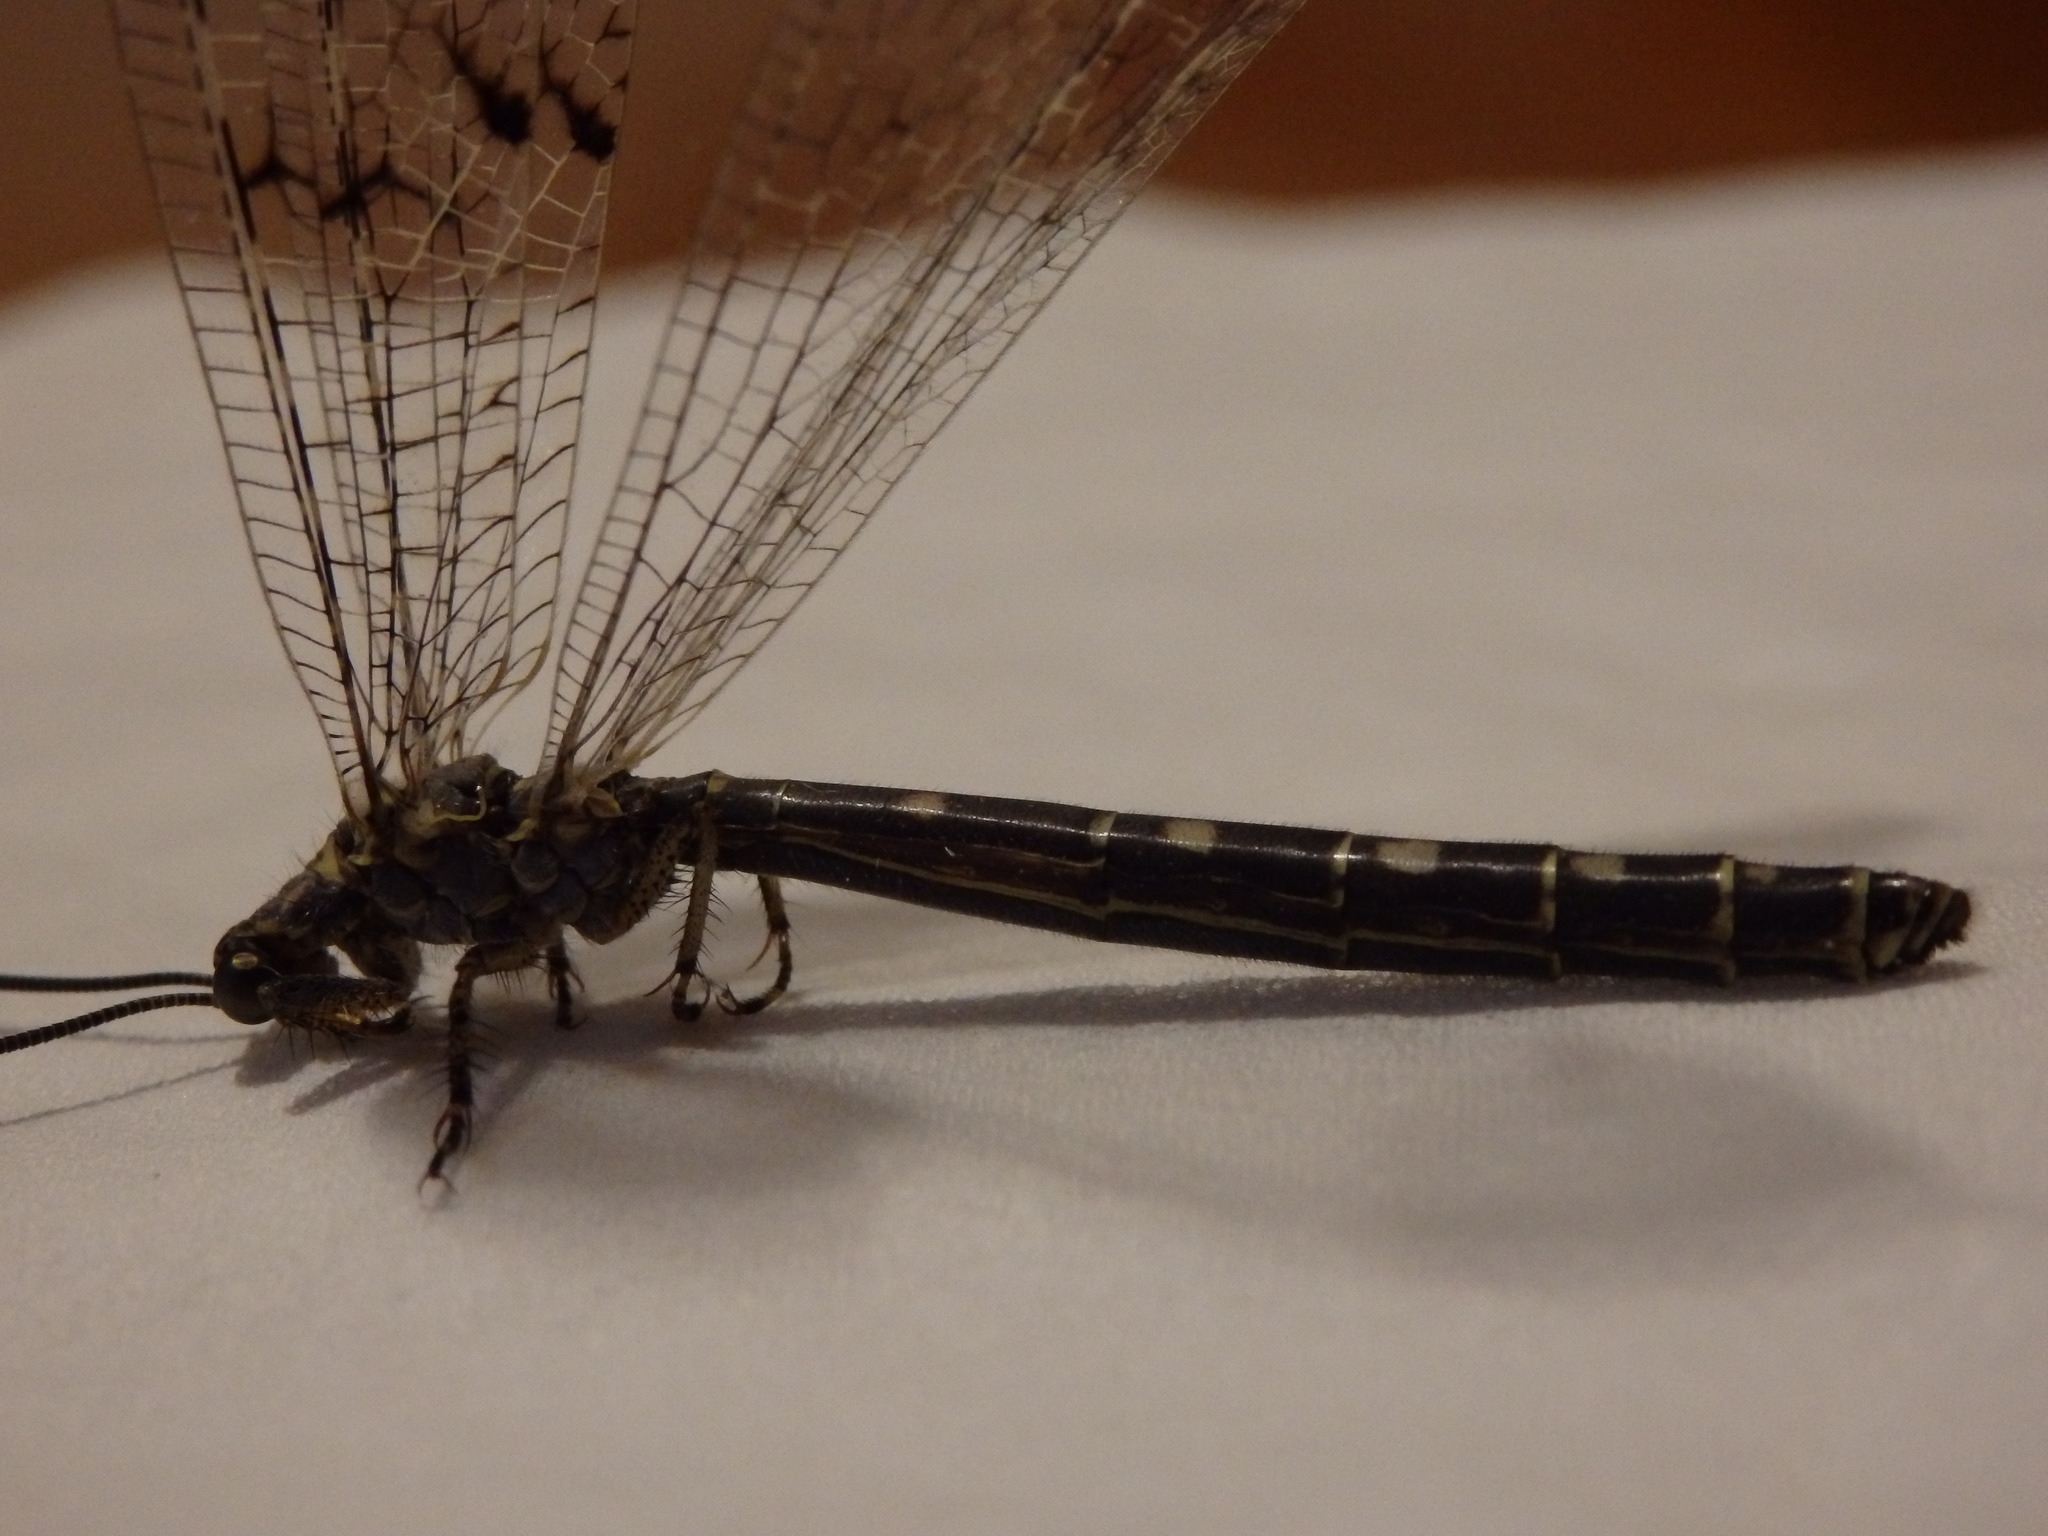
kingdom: Animalia
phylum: Arthropoda
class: Insecta
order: Neuroptera
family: Myrmeleontidae
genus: Distoleon
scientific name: Distoleon tetragrammicus
